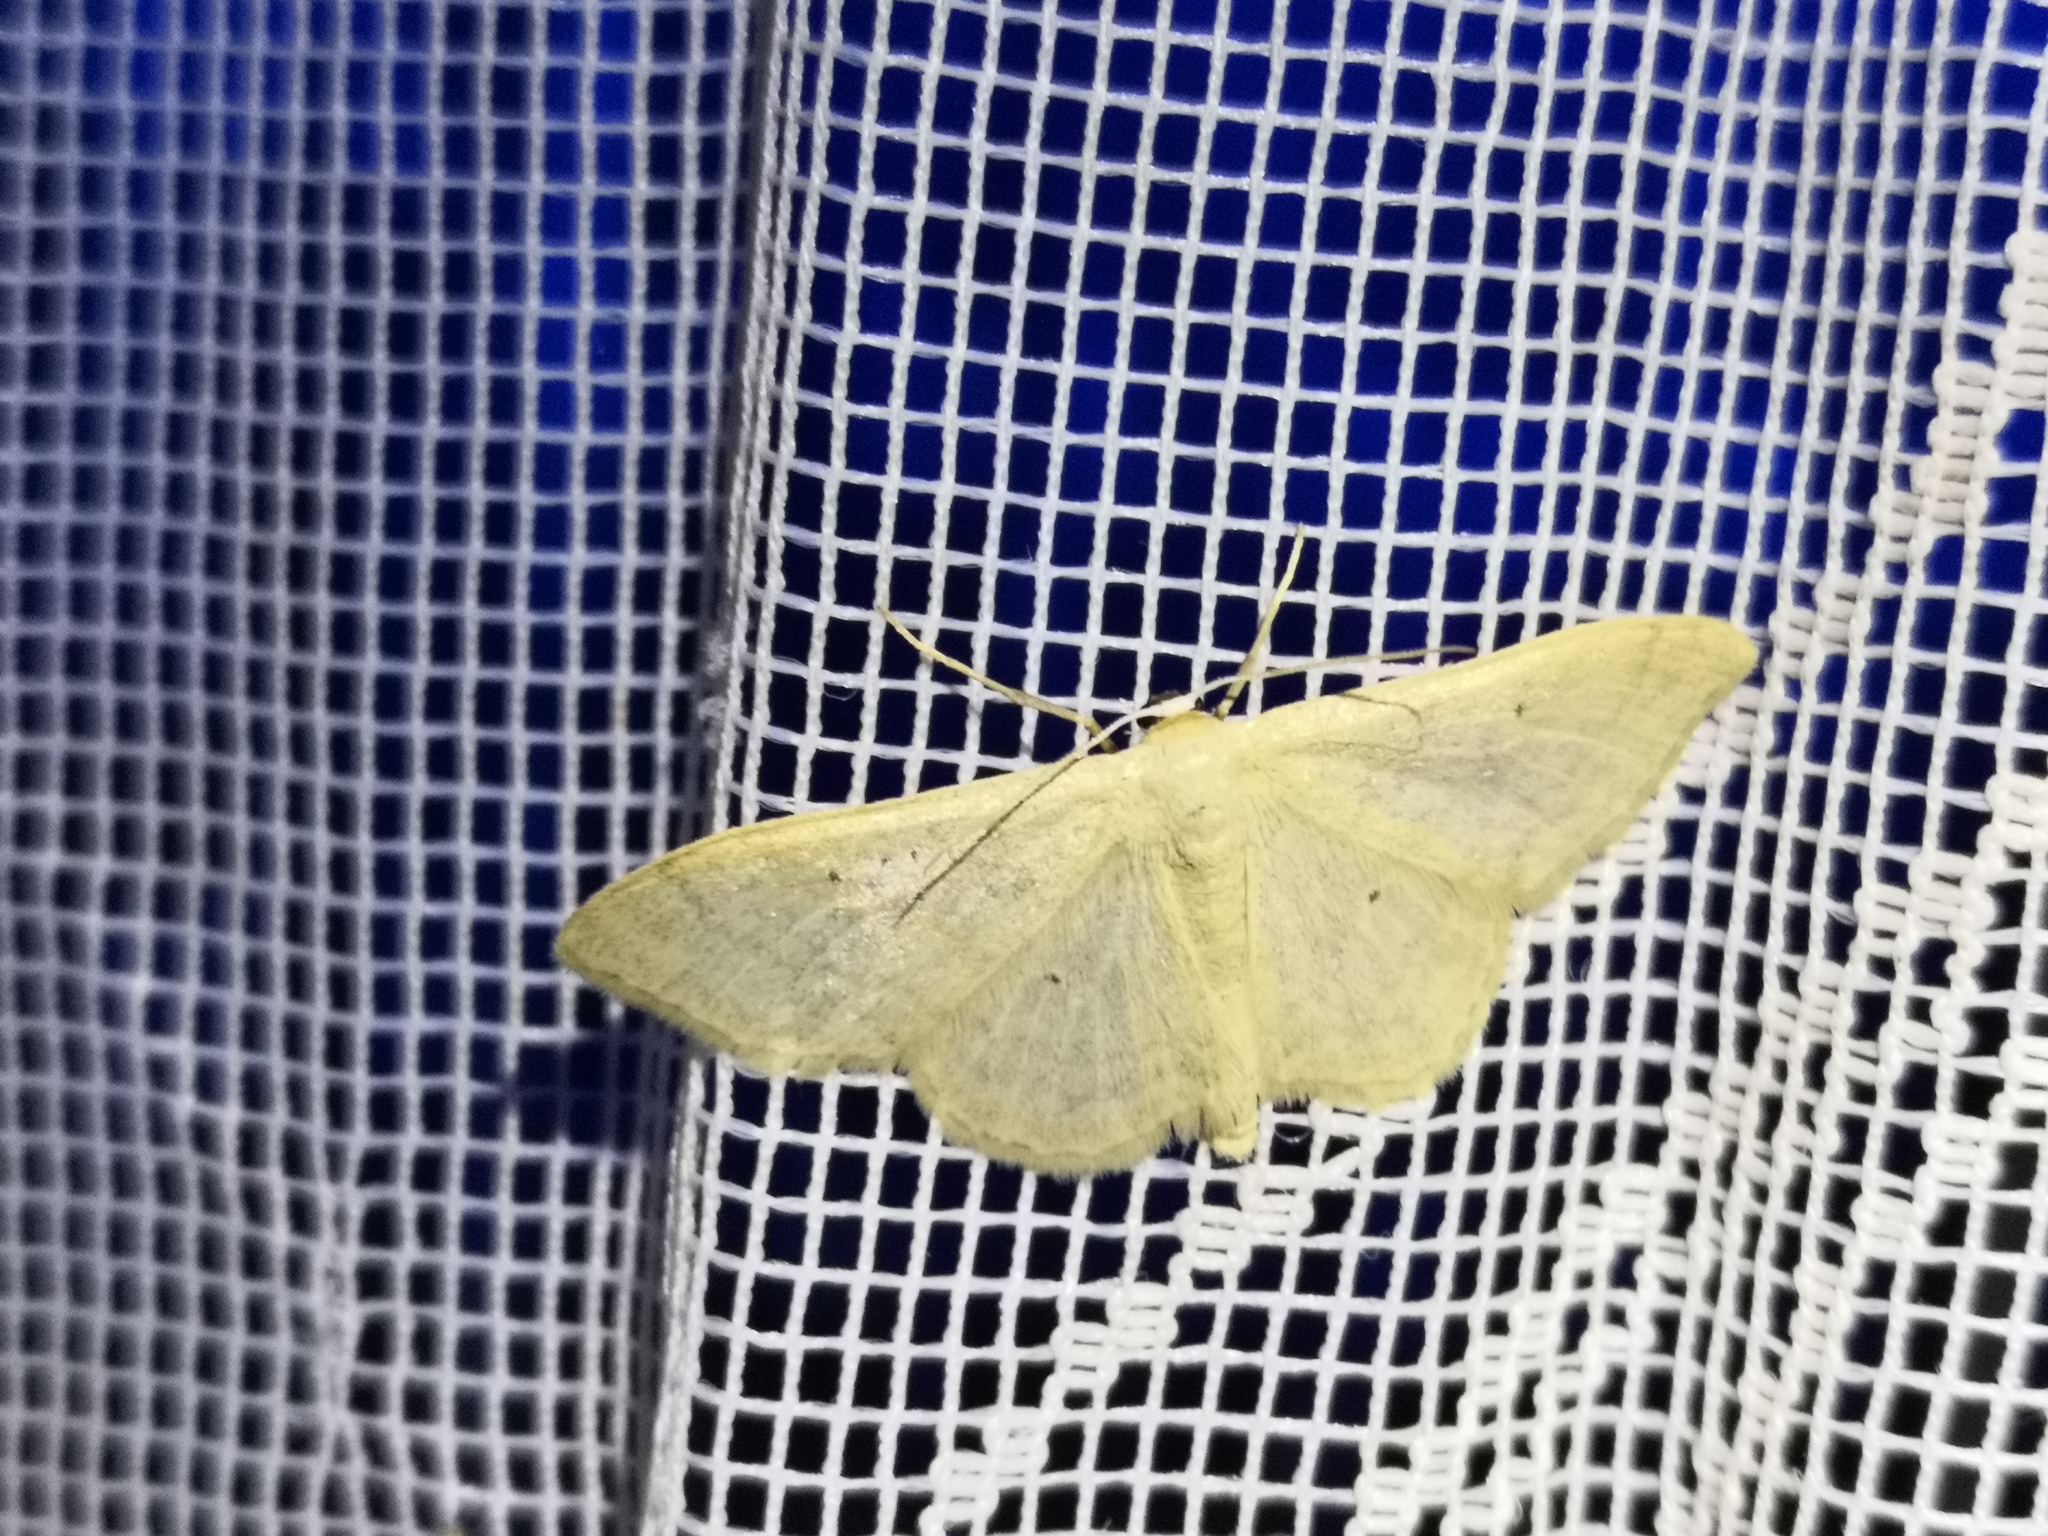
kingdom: Animalia
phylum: Arthropoda
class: Insecta
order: Lepidoptera
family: Geometridae
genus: Idaea
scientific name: Idaea straminata
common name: Plain wave
